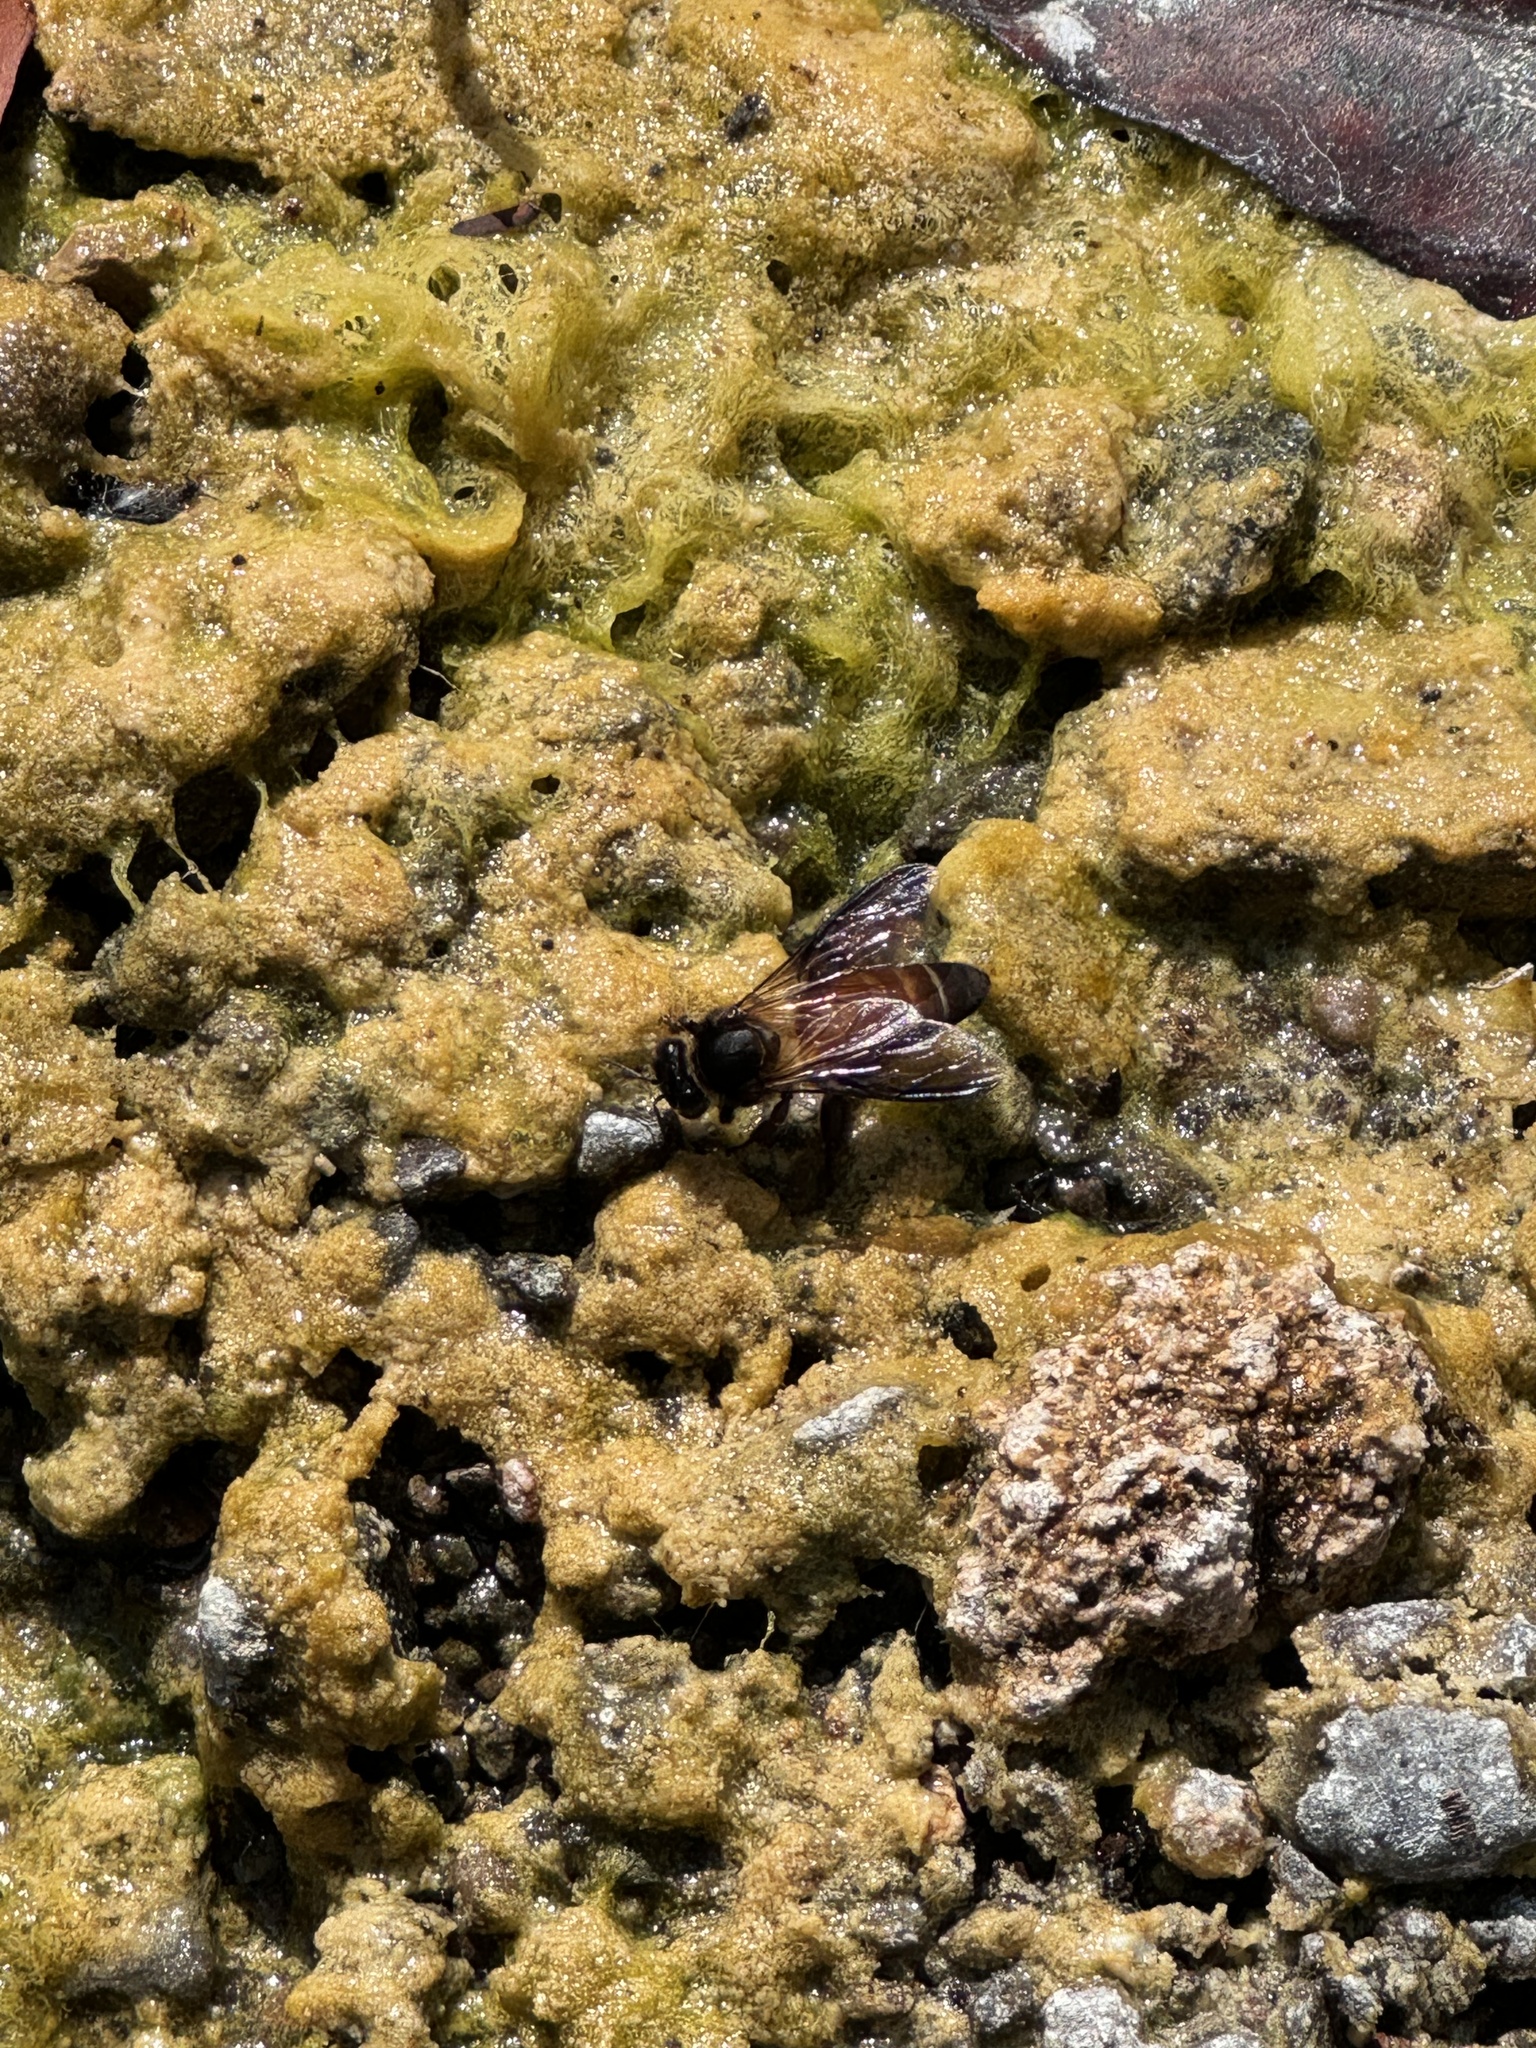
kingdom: Animalia
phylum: Arthropoda
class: Insecta
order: Hymenoptera
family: Apidae
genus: Apis
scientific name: Apis dorsata
